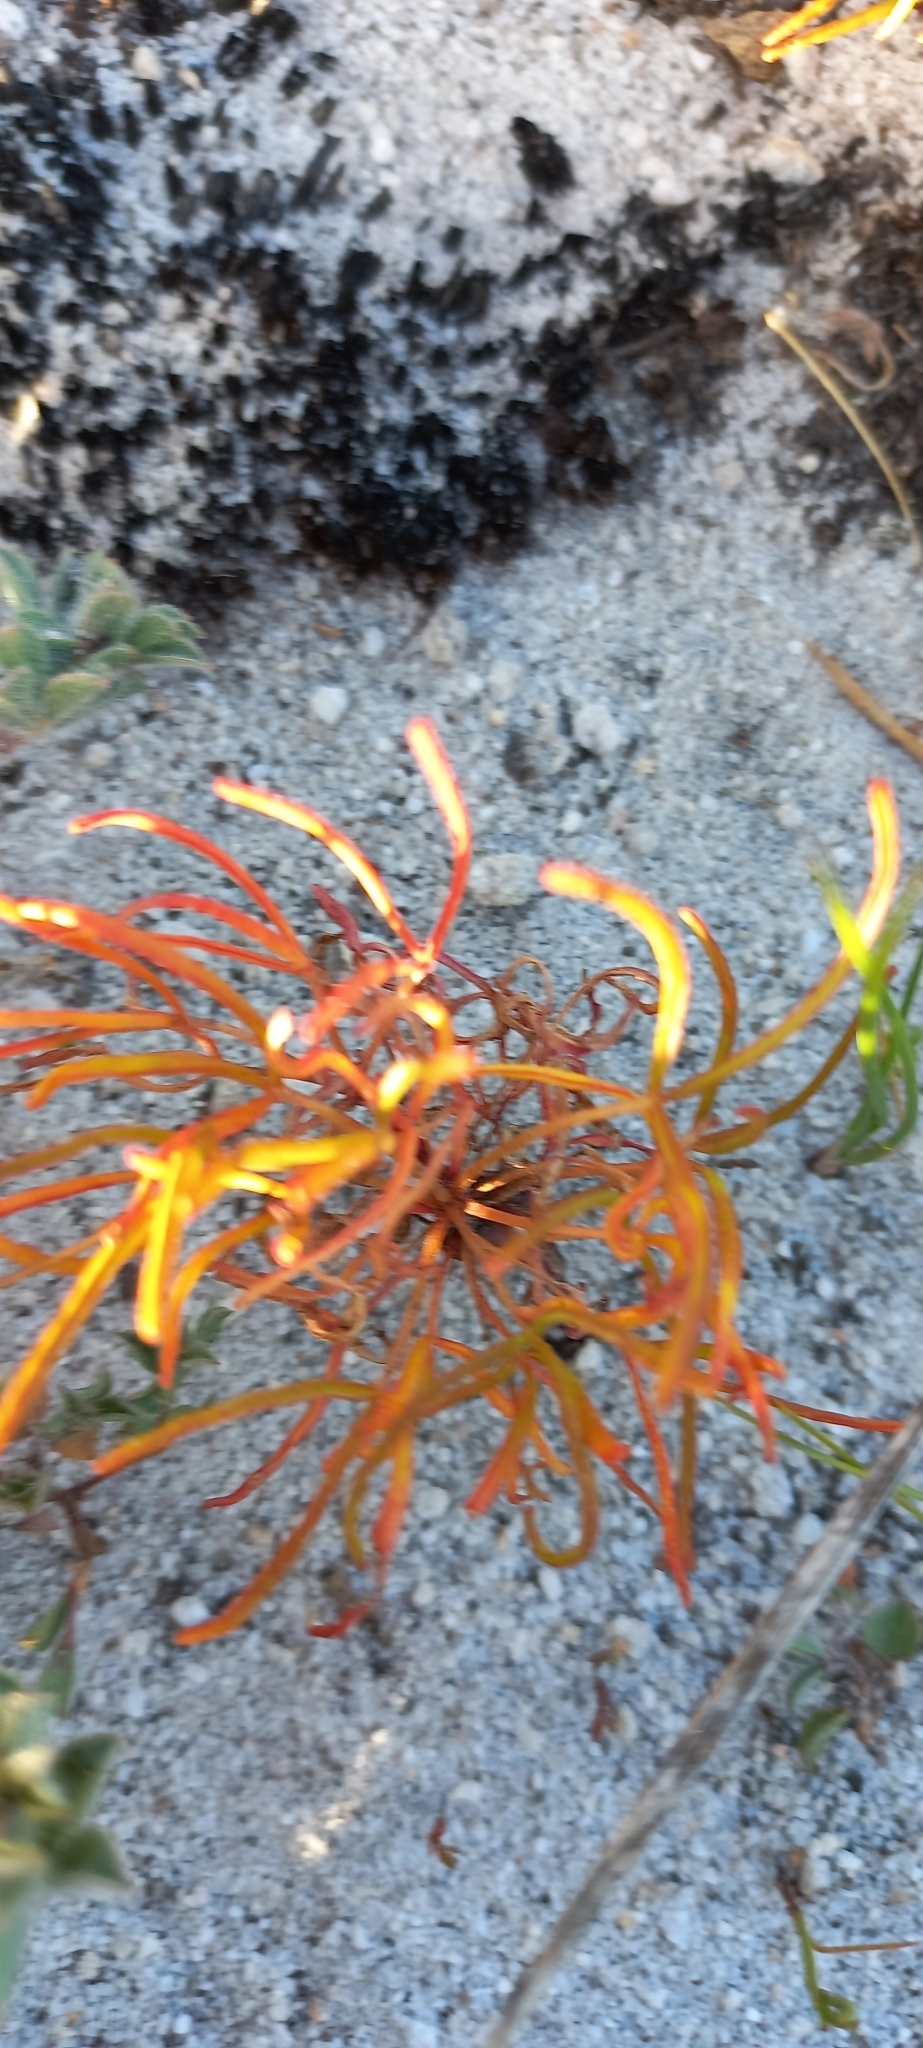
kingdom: Plantae
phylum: Tracheophyta
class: Magnoliopsida
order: Oxalidales
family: Oxalidaceae
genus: Oxalis
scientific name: Oxalis polyphylla
